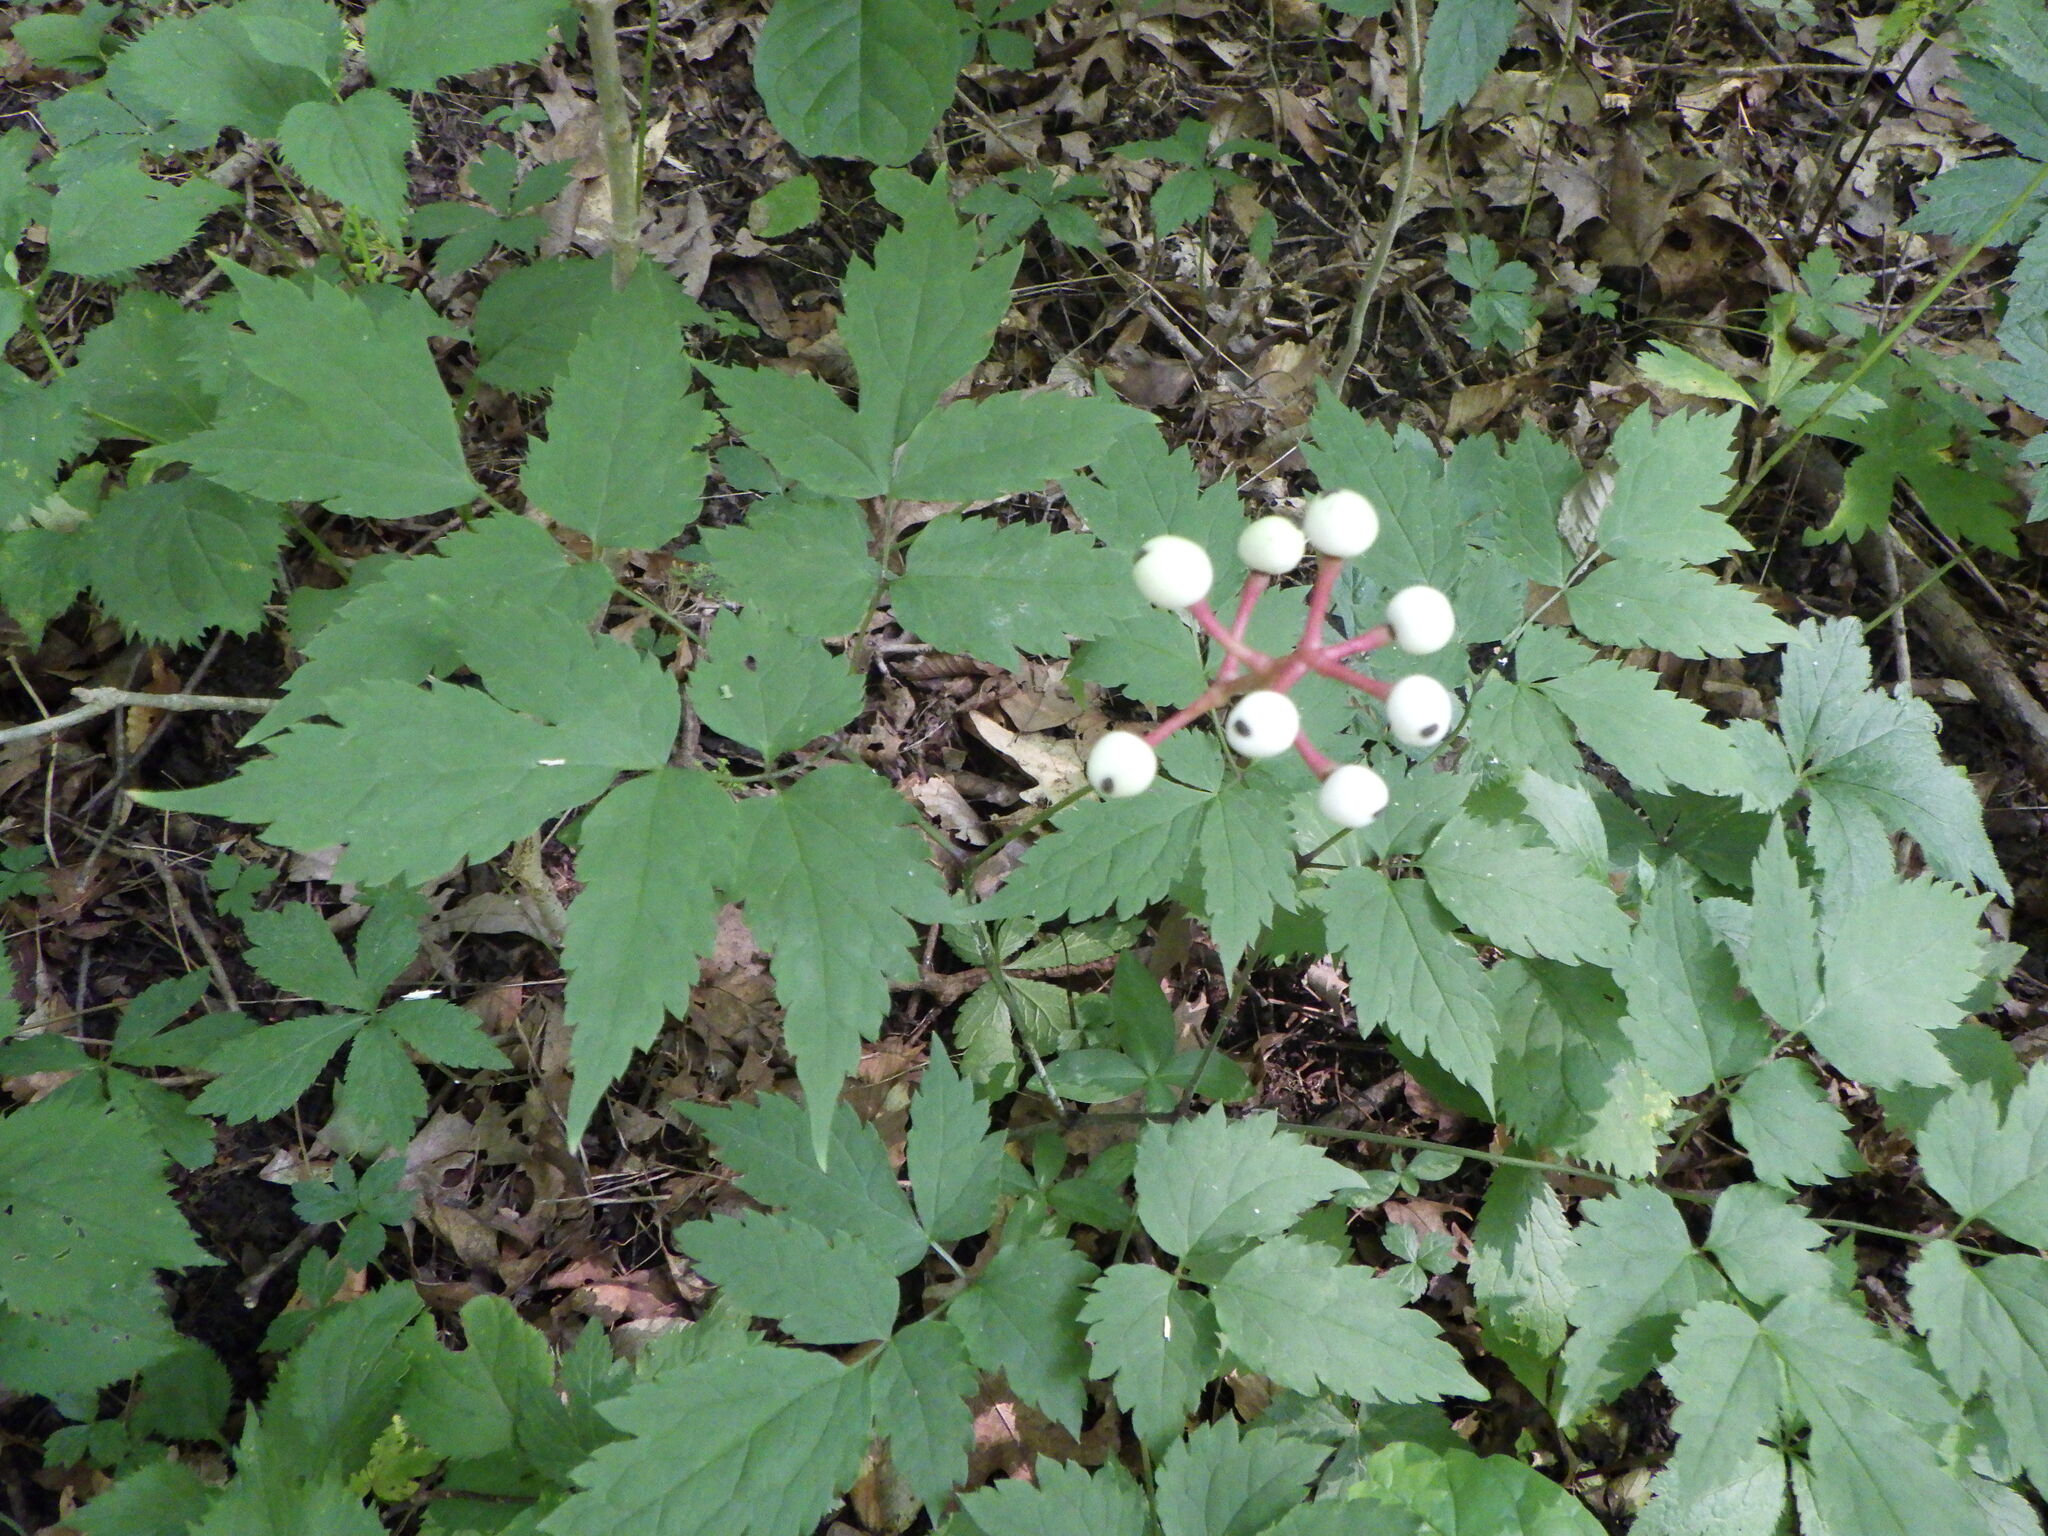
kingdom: Plantae
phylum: Tracheophyta
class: Magnoliopsida
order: Ranunculales
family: Ranunculaceae
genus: Actaea
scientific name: Actaea pachypoda
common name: Doll's-eyes
